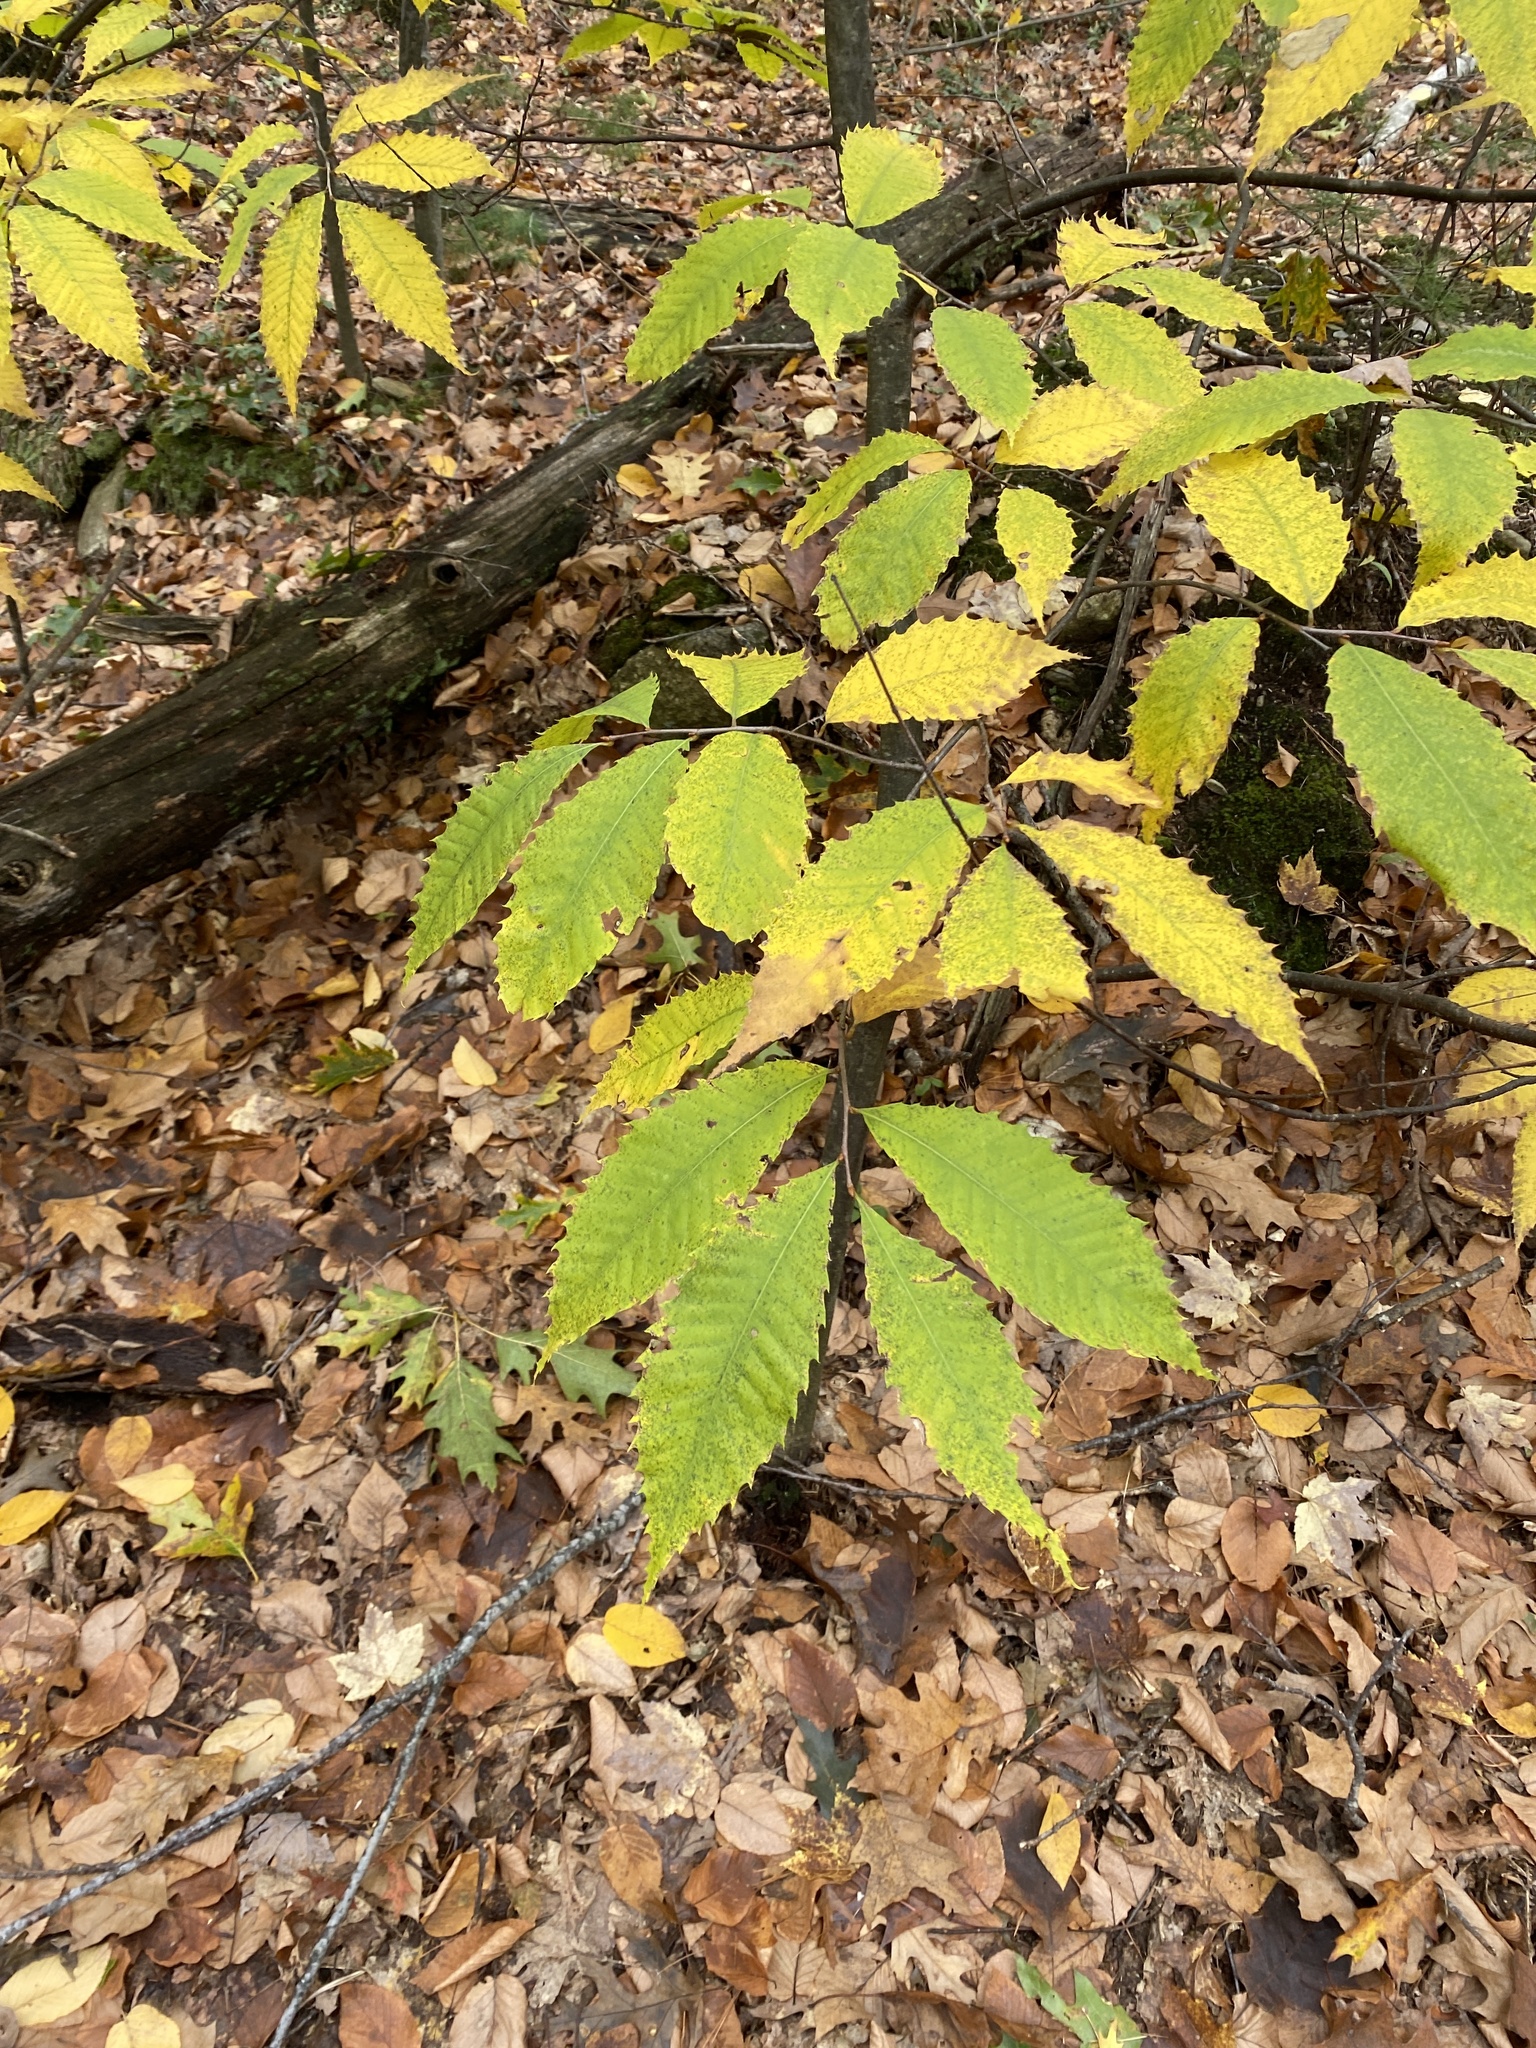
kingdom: Plantae
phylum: Tracheophyta
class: Magnoliopsida
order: Fagales
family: Fagaceae
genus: Castanea
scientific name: Castanea dentata
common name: American chestnut
